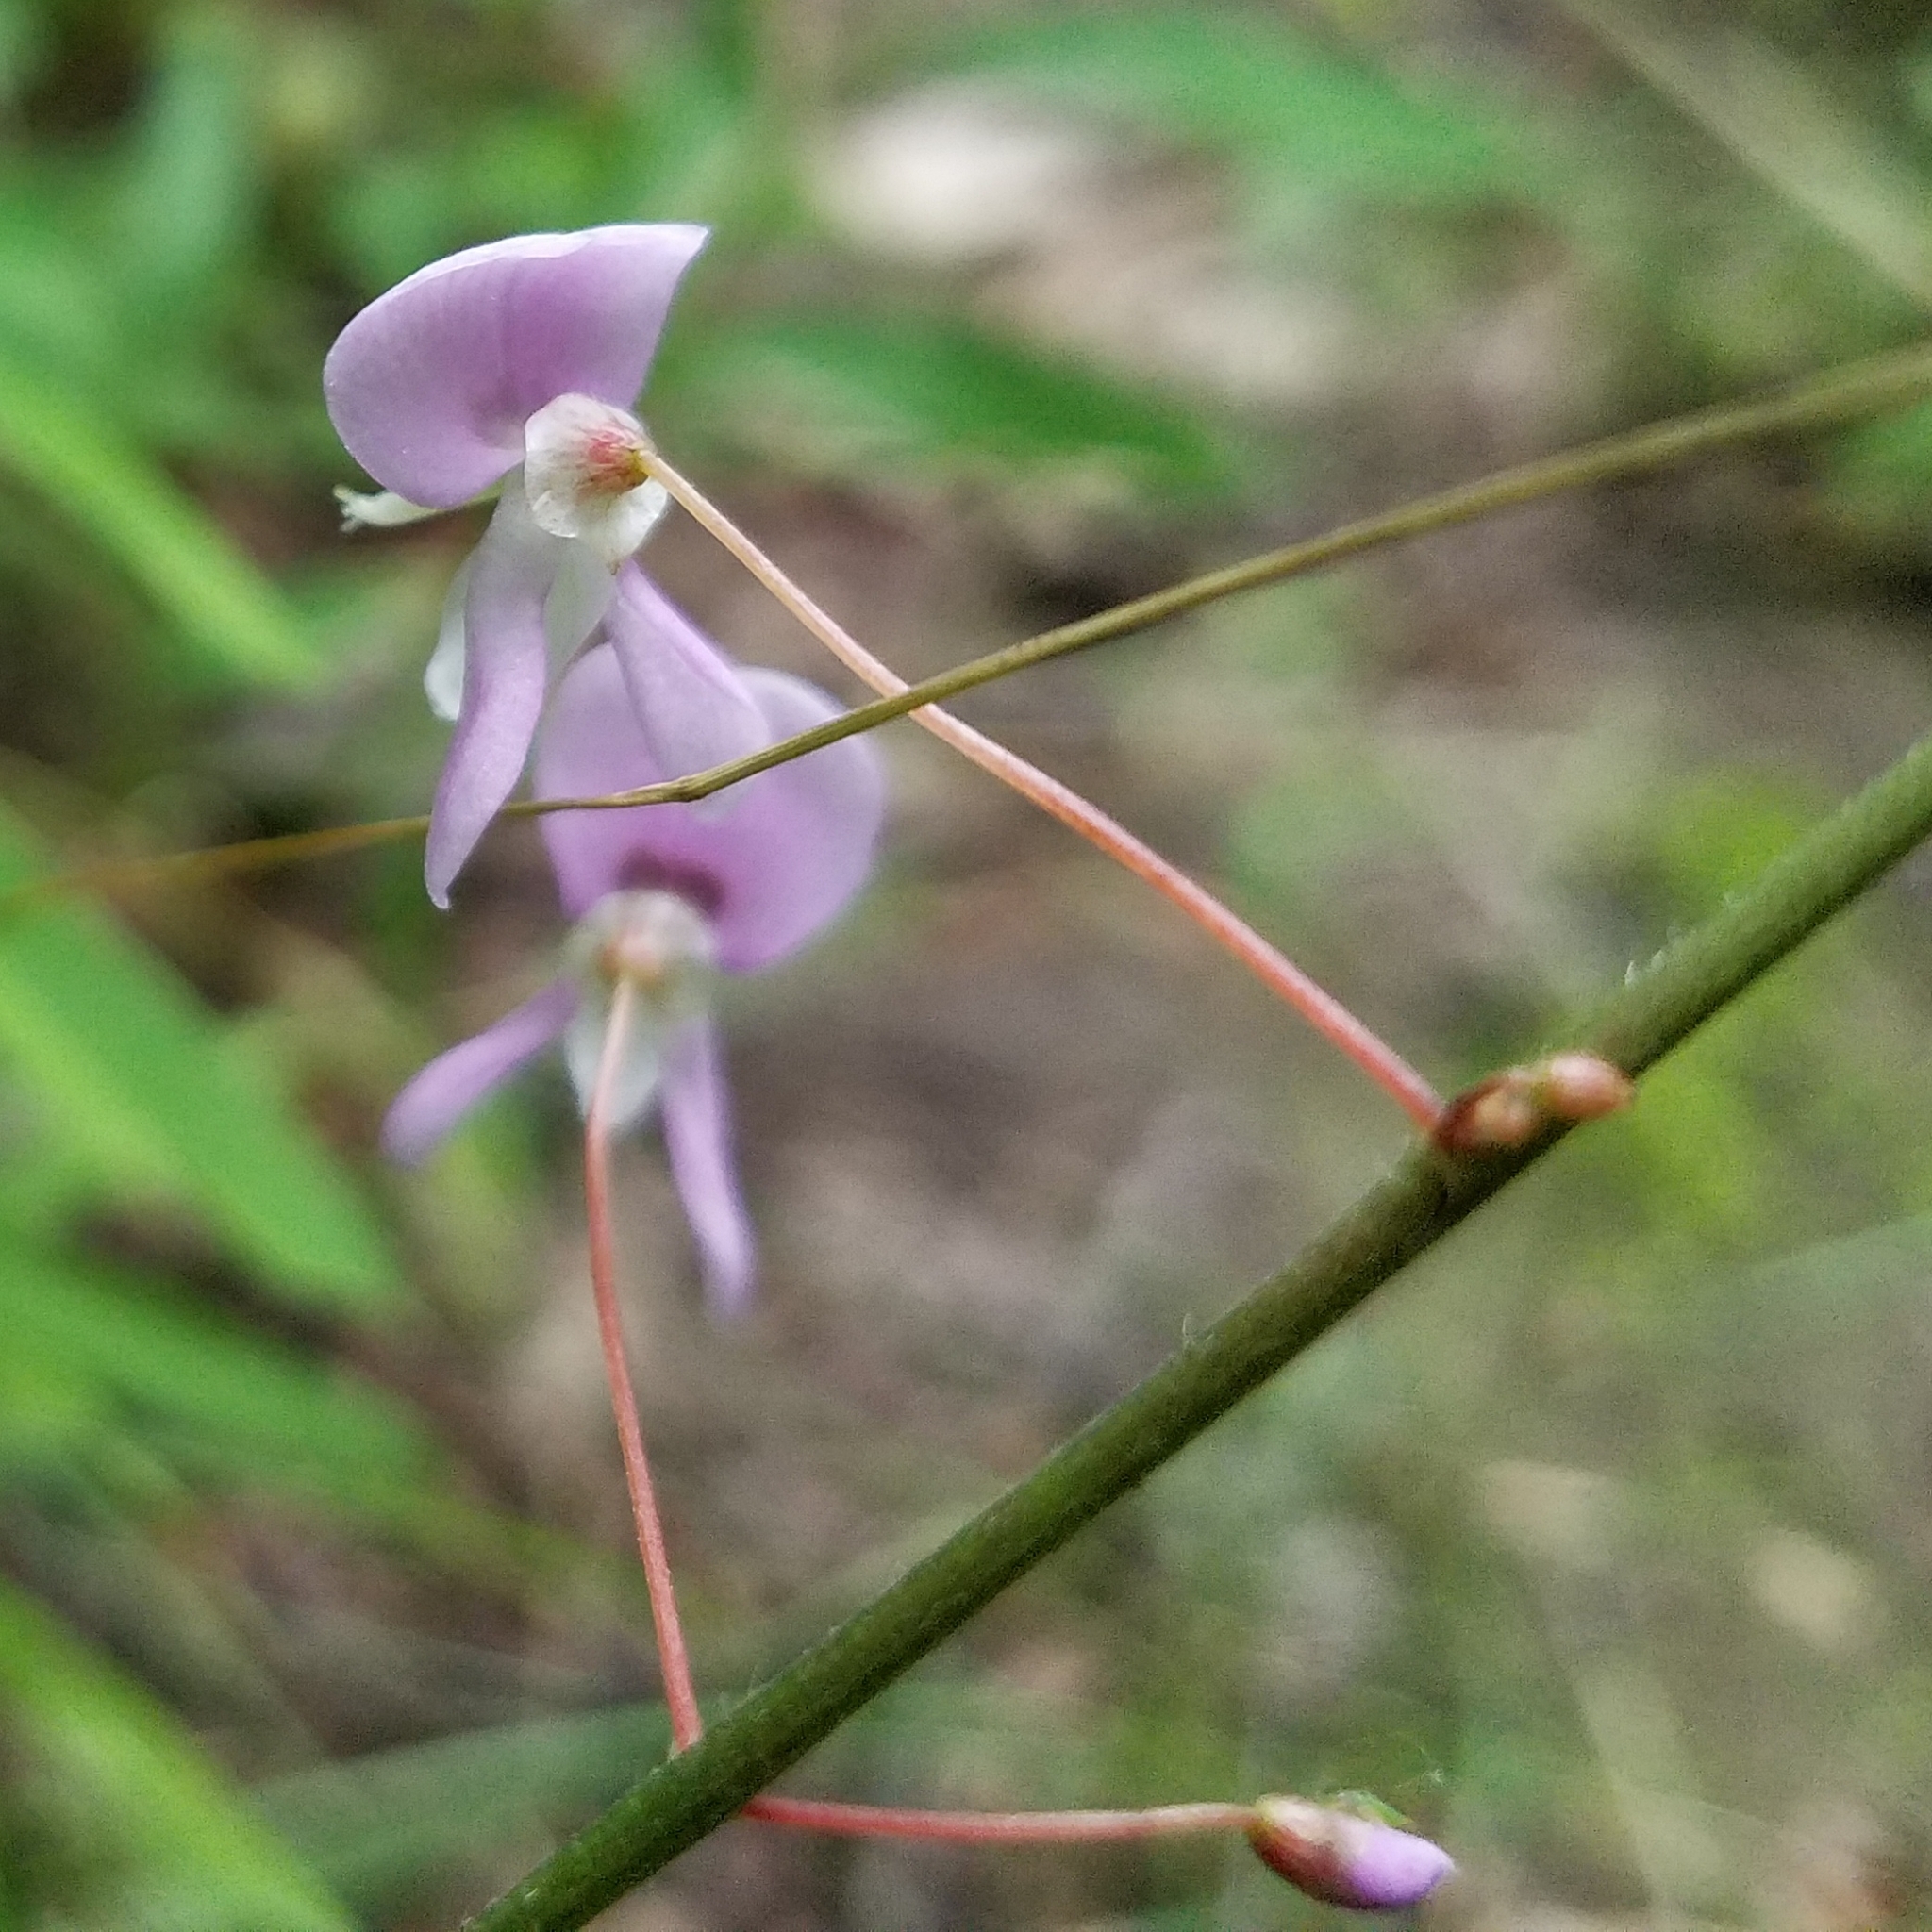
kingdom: Plantae
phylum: Tracheophyta
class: Magnoliopsida
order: Fabales
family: Fabaceae
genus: Hylodesmum
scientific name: Hylodesmum nudiflorum
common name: Bare-stemmed tick-trefoil
